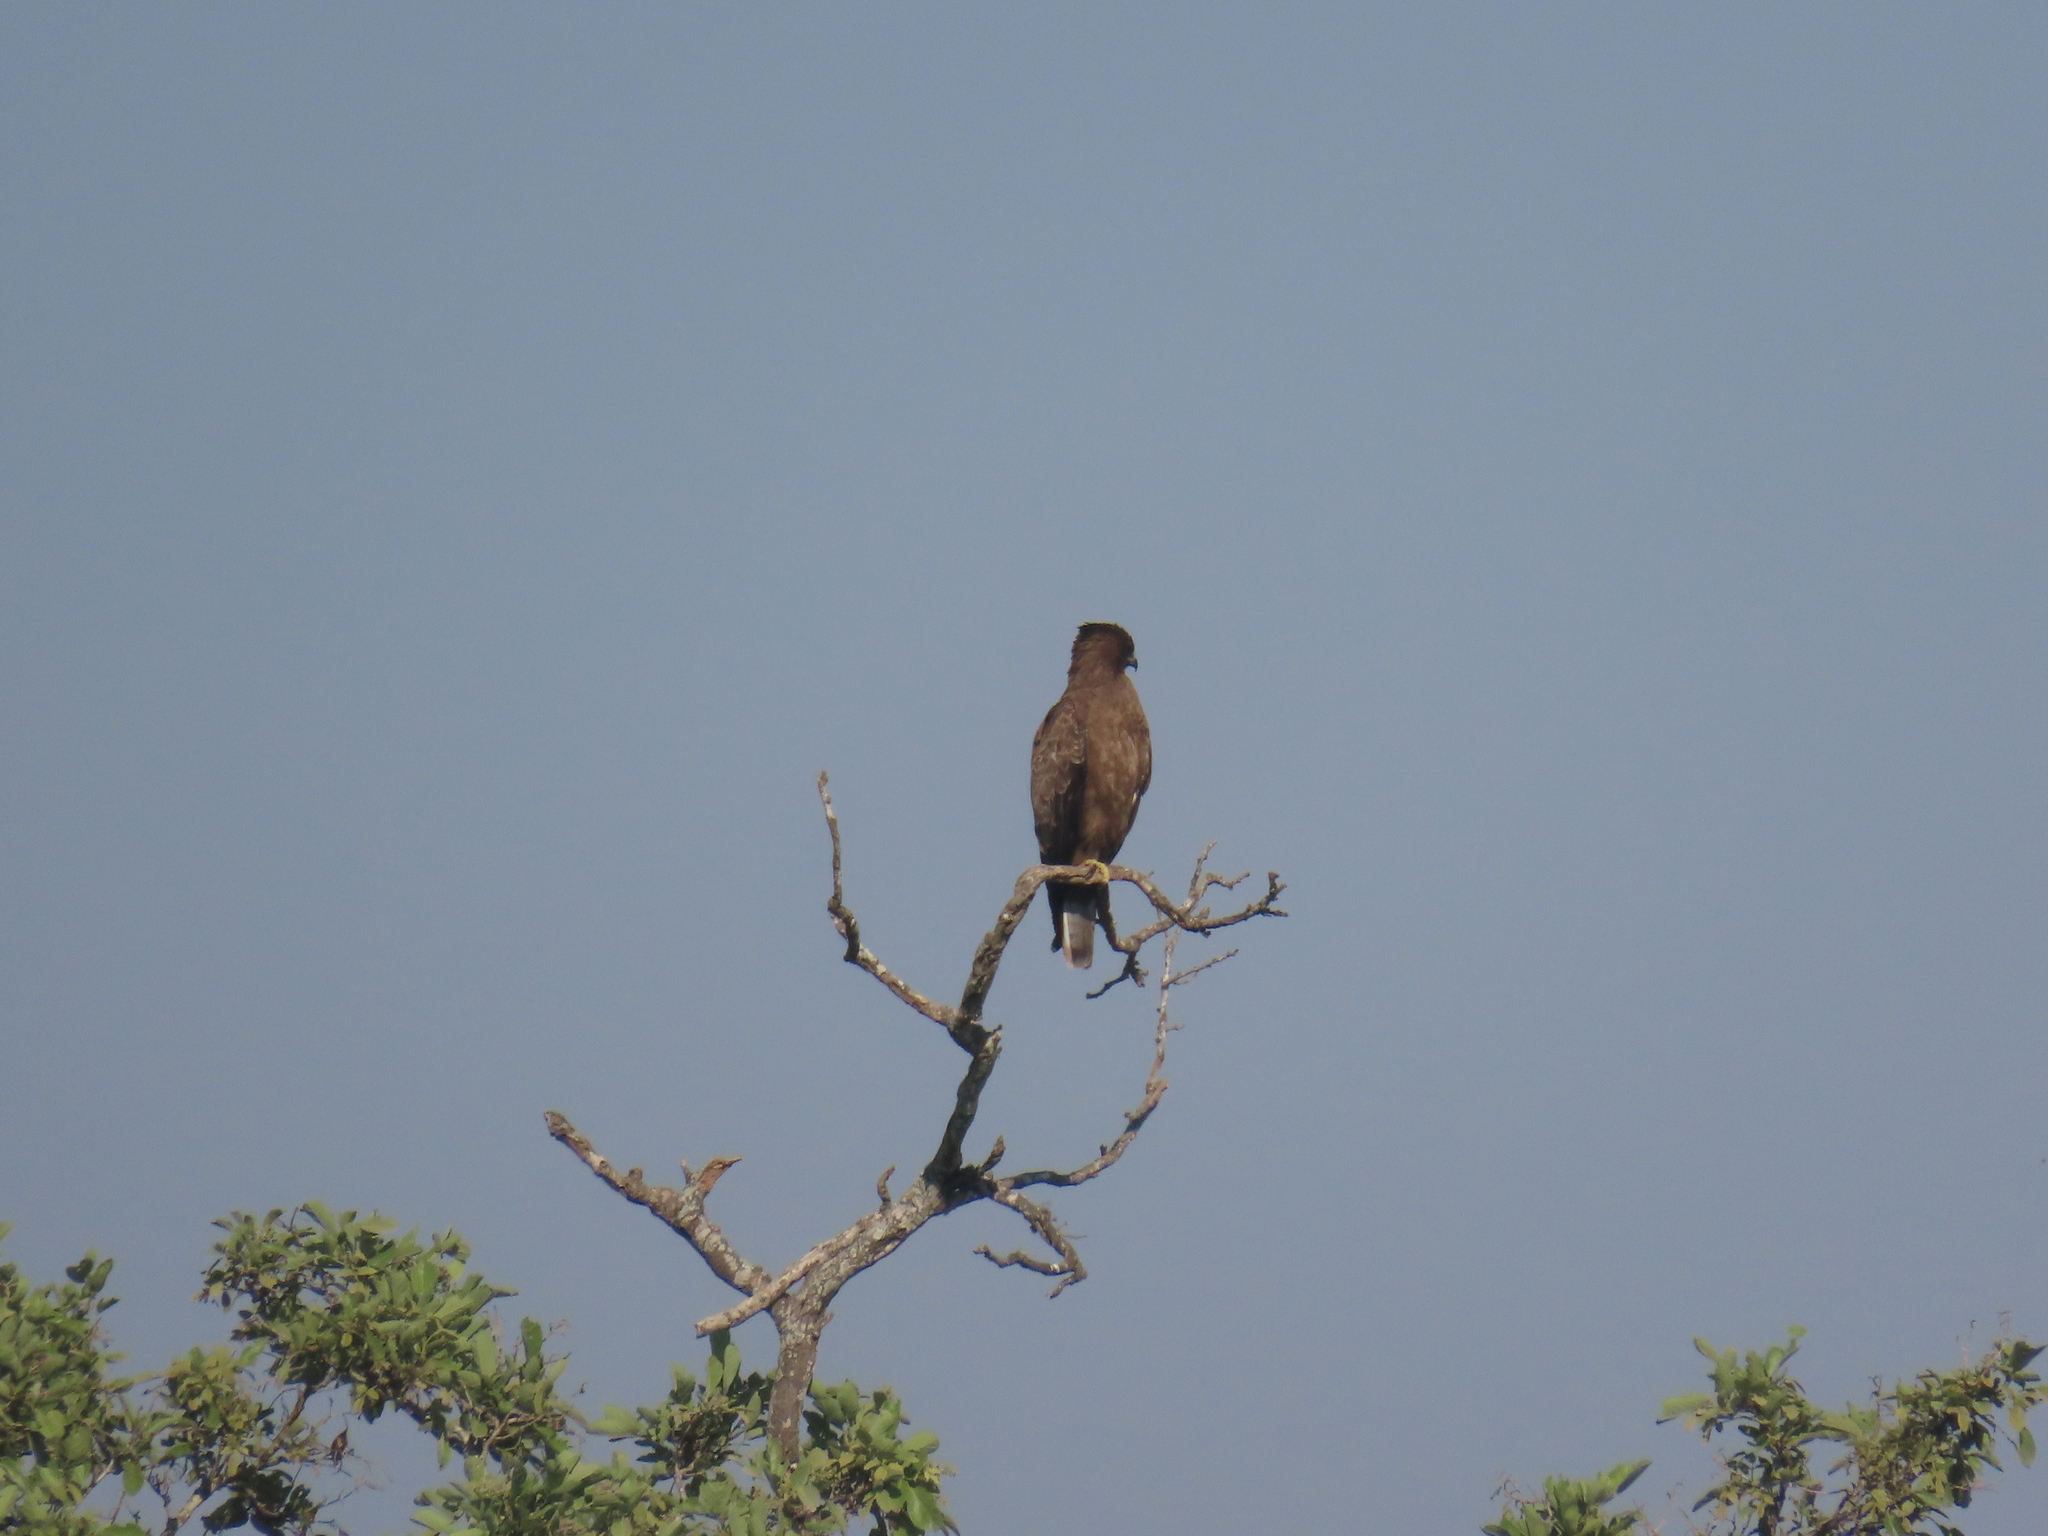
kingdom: Animalia
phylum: Chordata
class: Aves
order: Accipitriformes
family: Accipitridae
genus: Circaetus
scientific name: Circaetus cinereus
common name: Brown snake eagle
